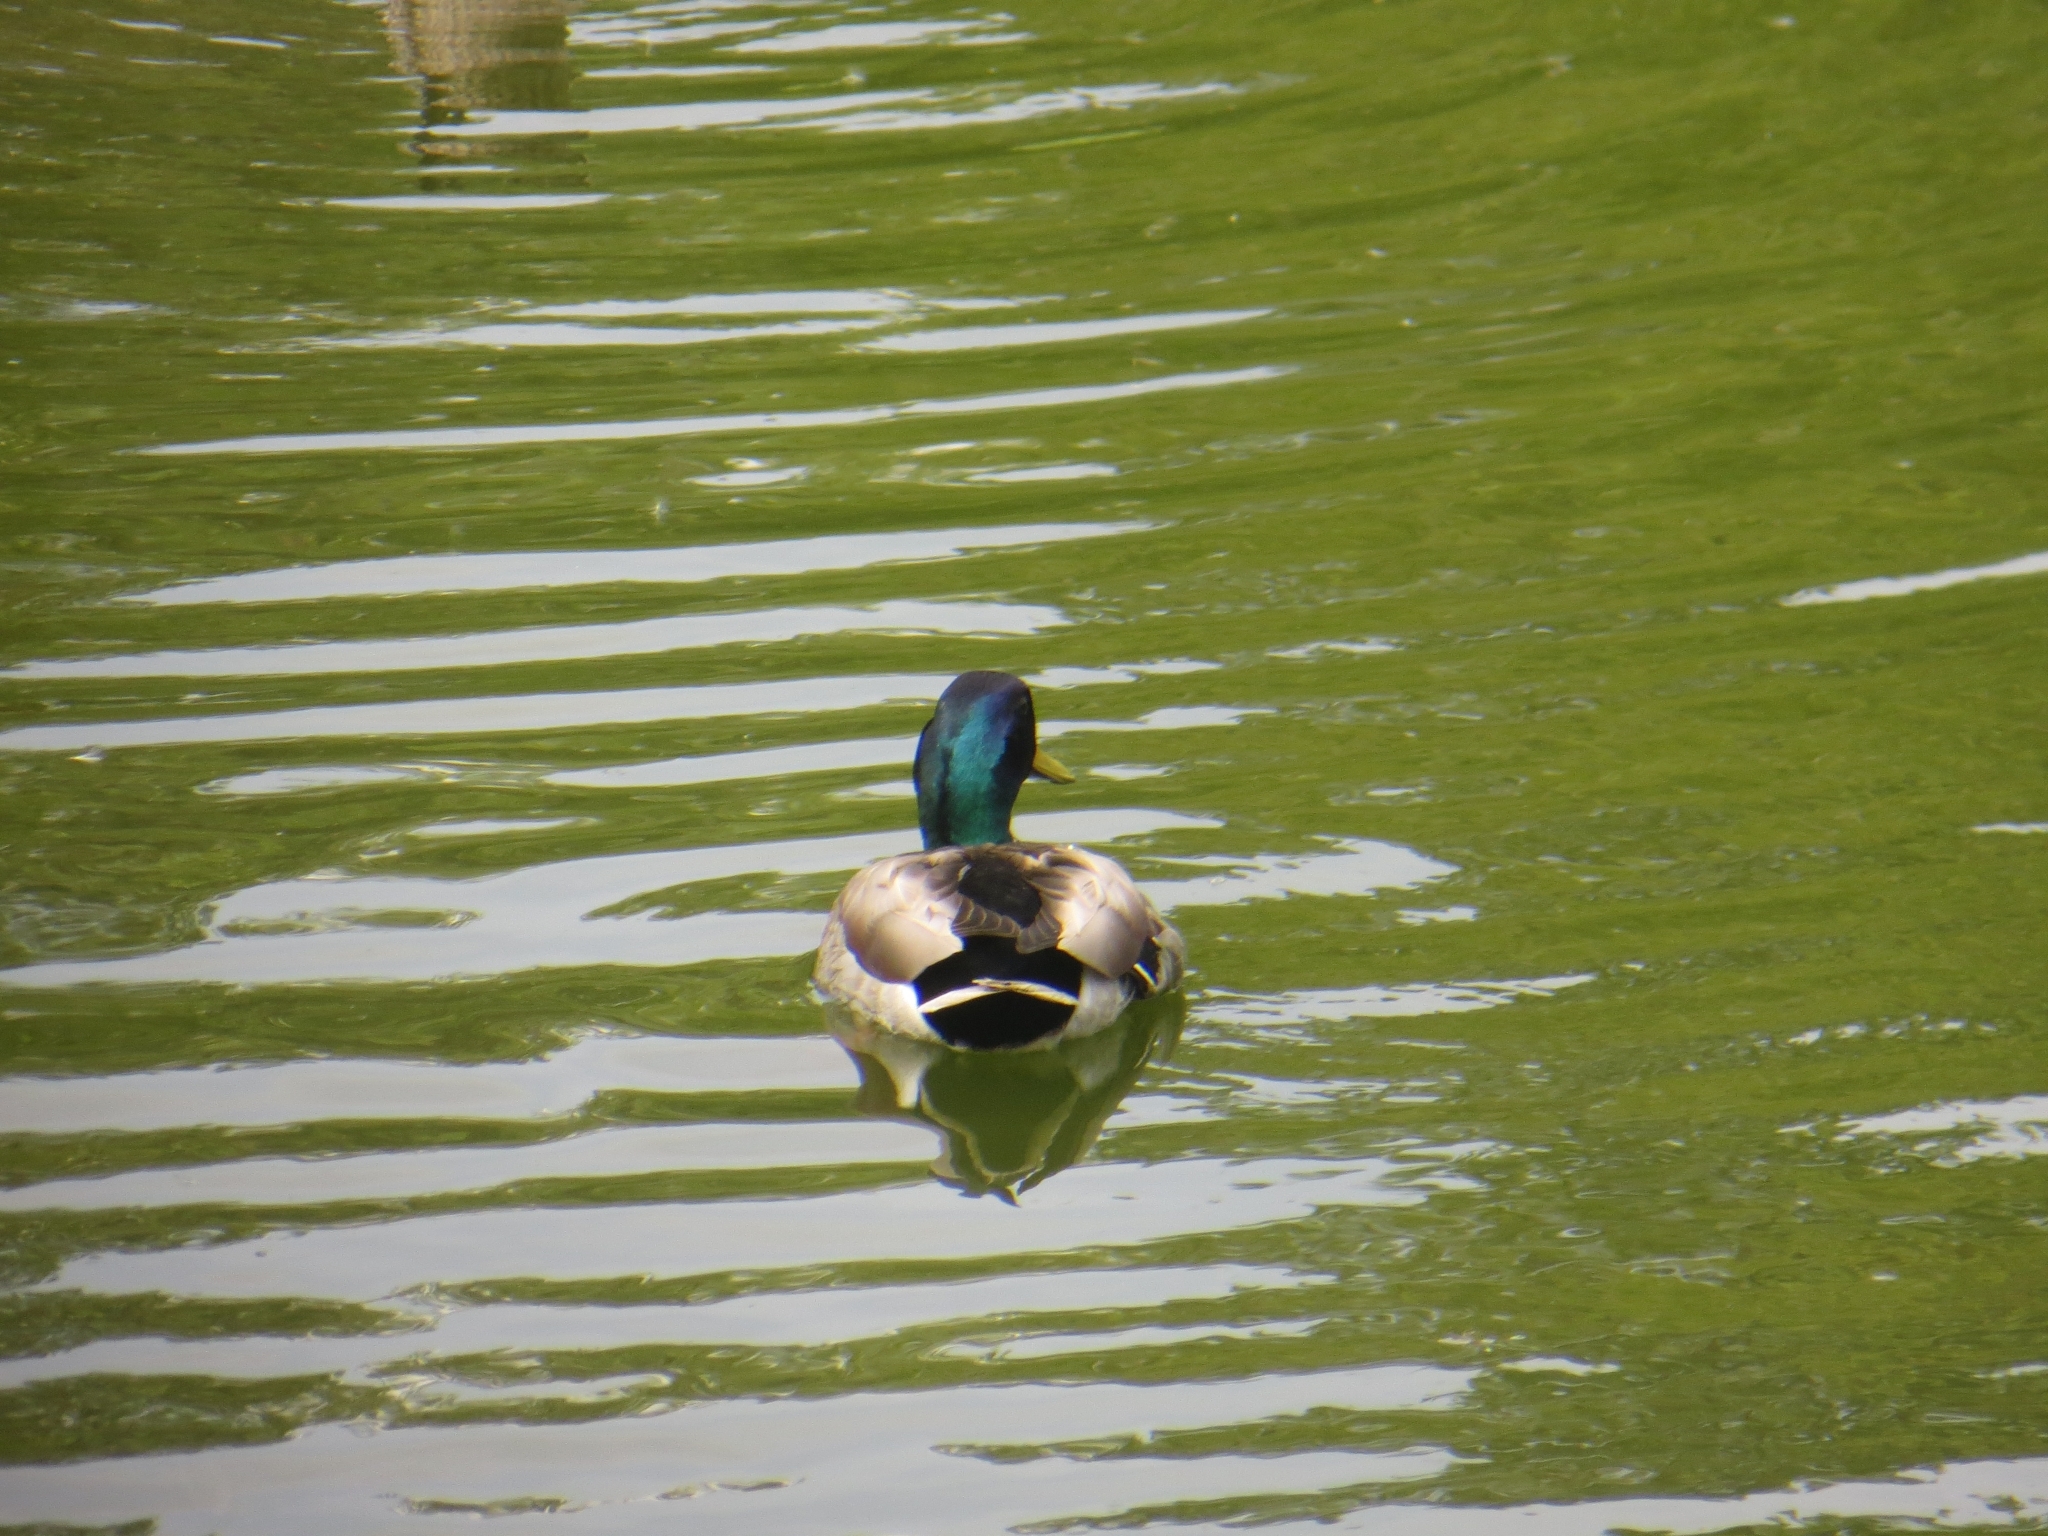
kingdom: Animalia
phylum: Chordata
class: Aves
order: Anseriformes
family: Anatidae
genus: Anas
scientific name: Anas platyrhynchos
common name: Mallard
